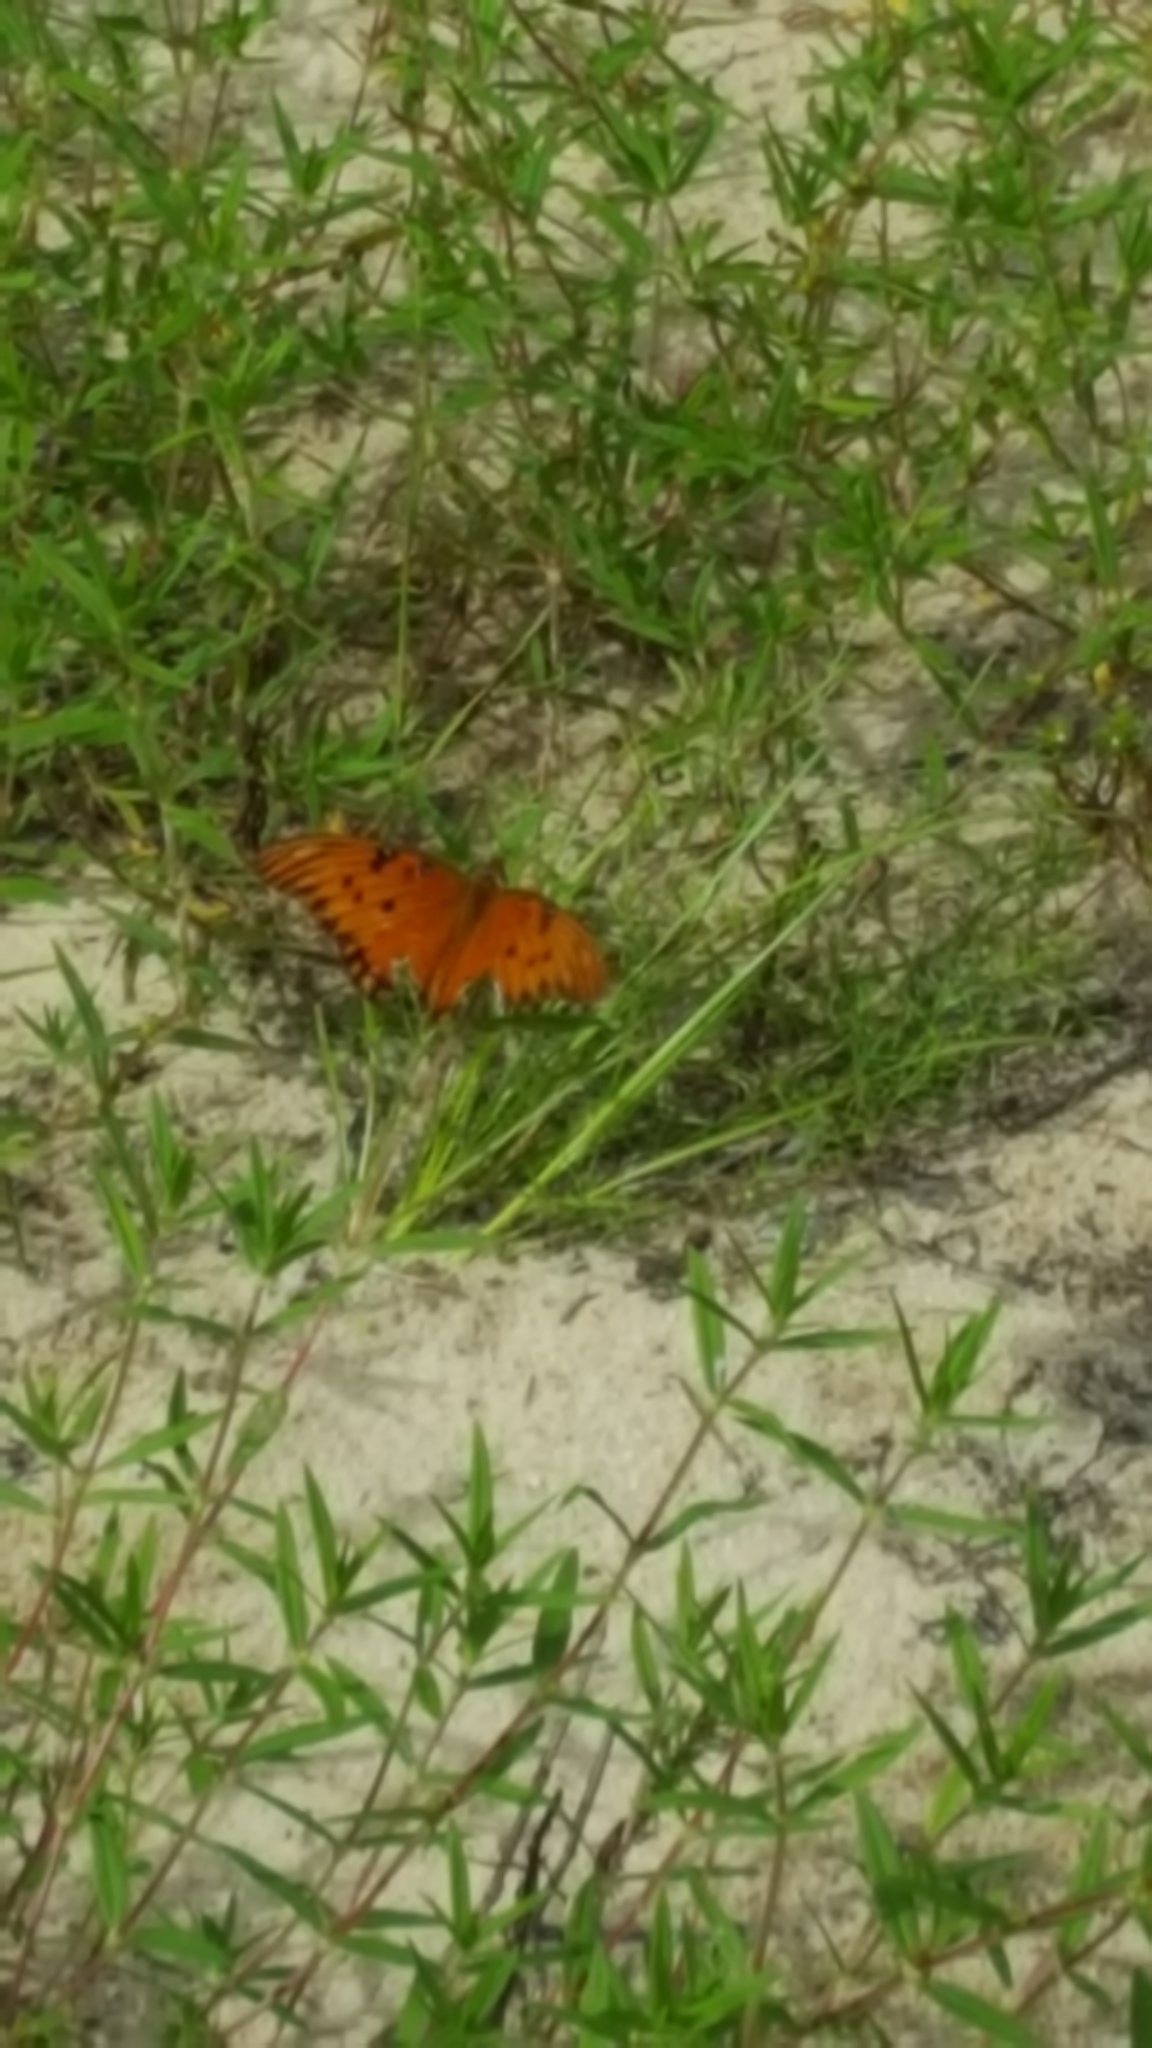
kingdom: Animalia
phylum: Arthropoda
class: Insecta
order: Lepidoptera
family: Nymphalidae
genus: Dione
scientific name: Dione vanillae
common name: Gulf fritillary
